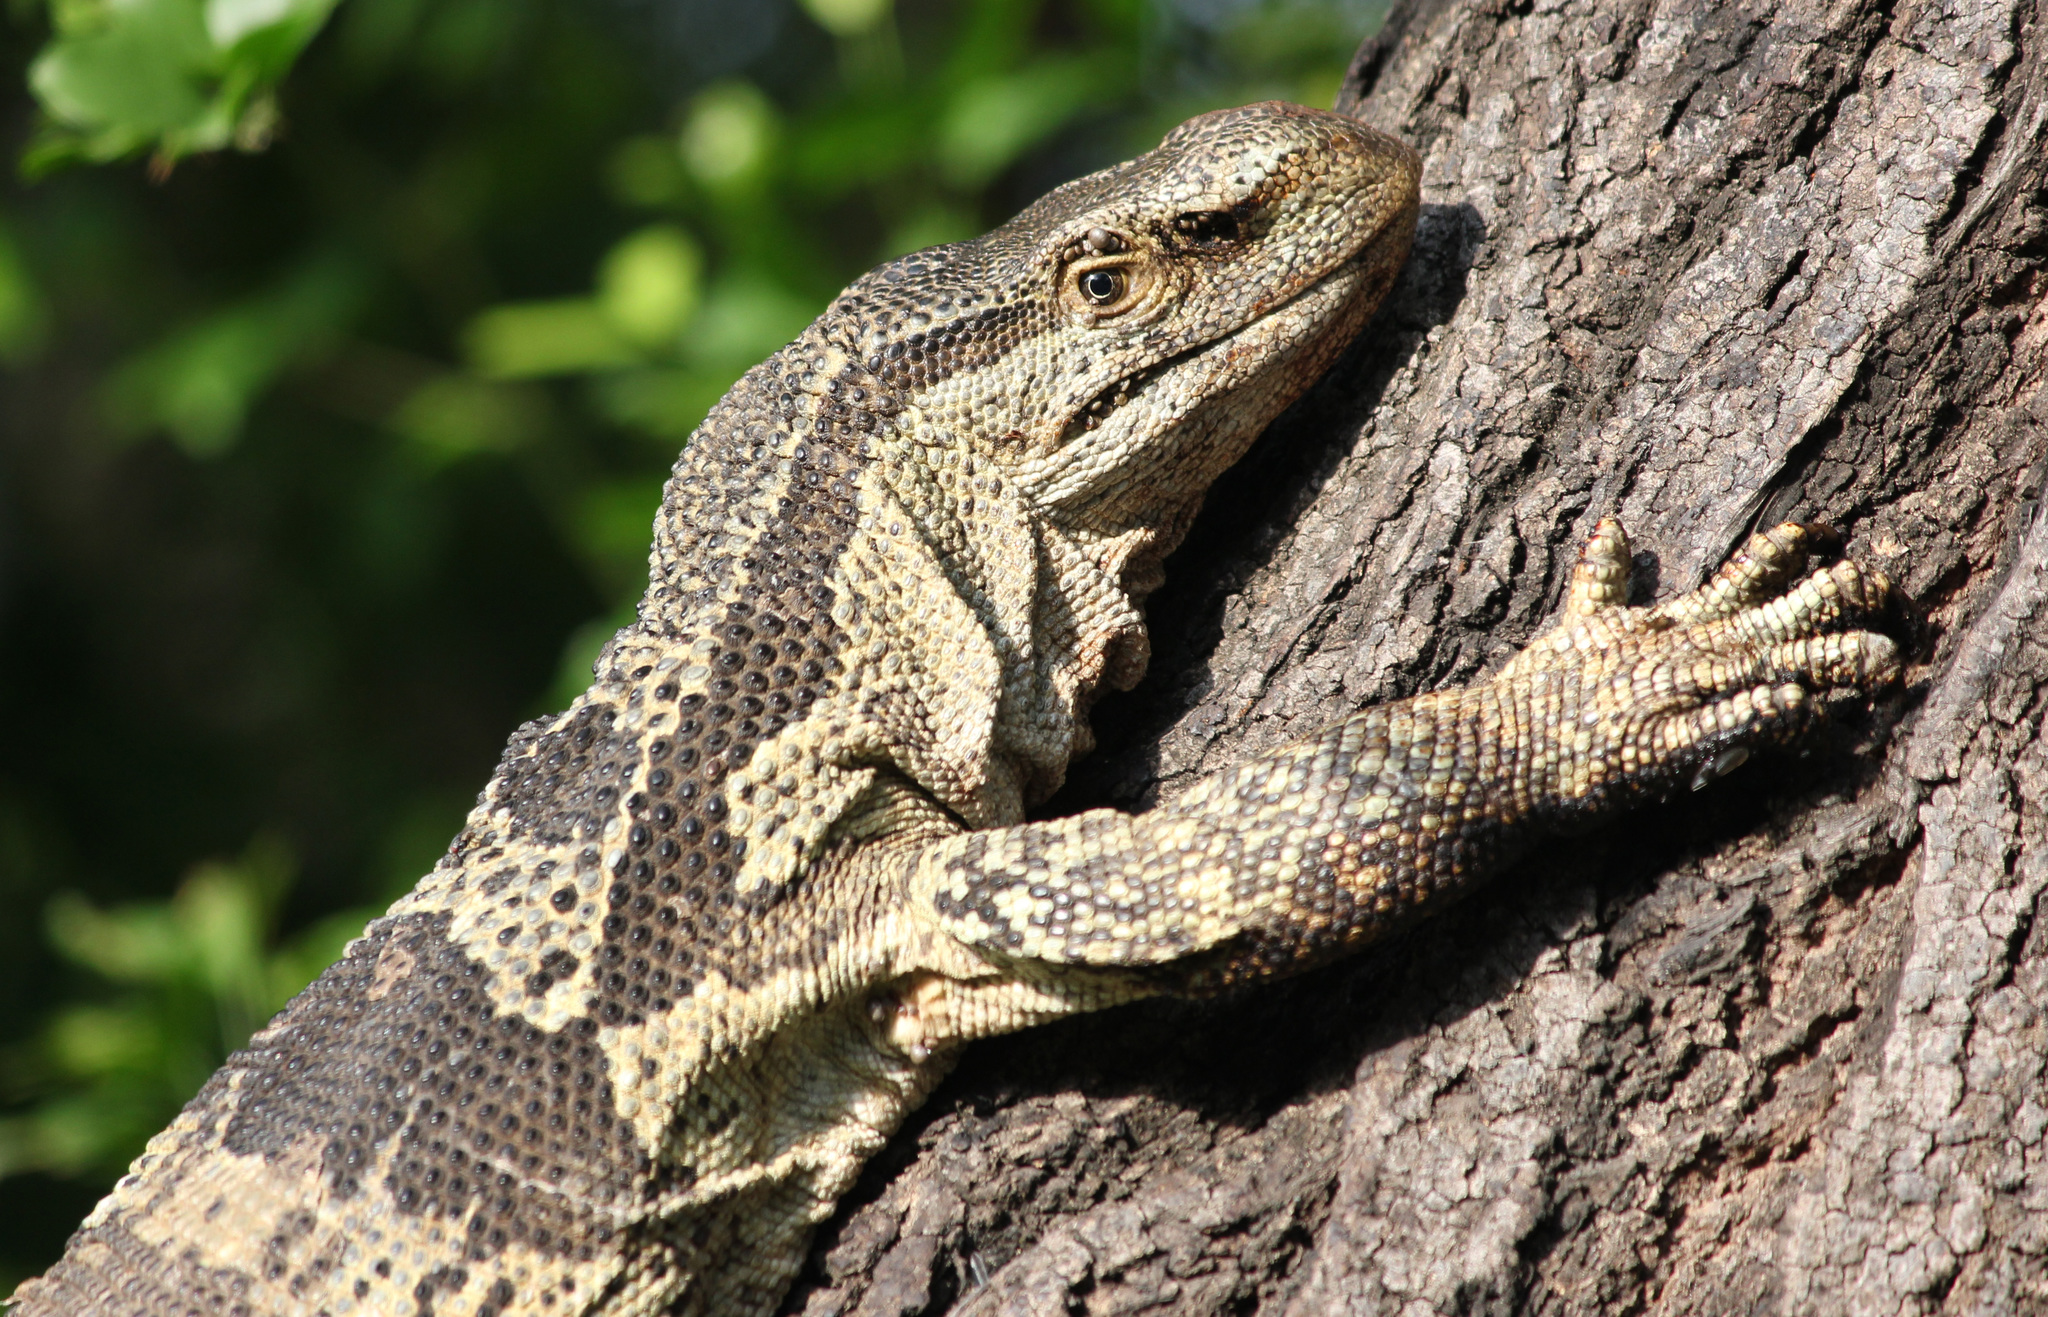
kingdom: Animalia
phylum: Chordata
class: Squamata
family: Varanidae
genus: Varanus
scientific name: Varanus albigularis
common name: White-throated monitor
